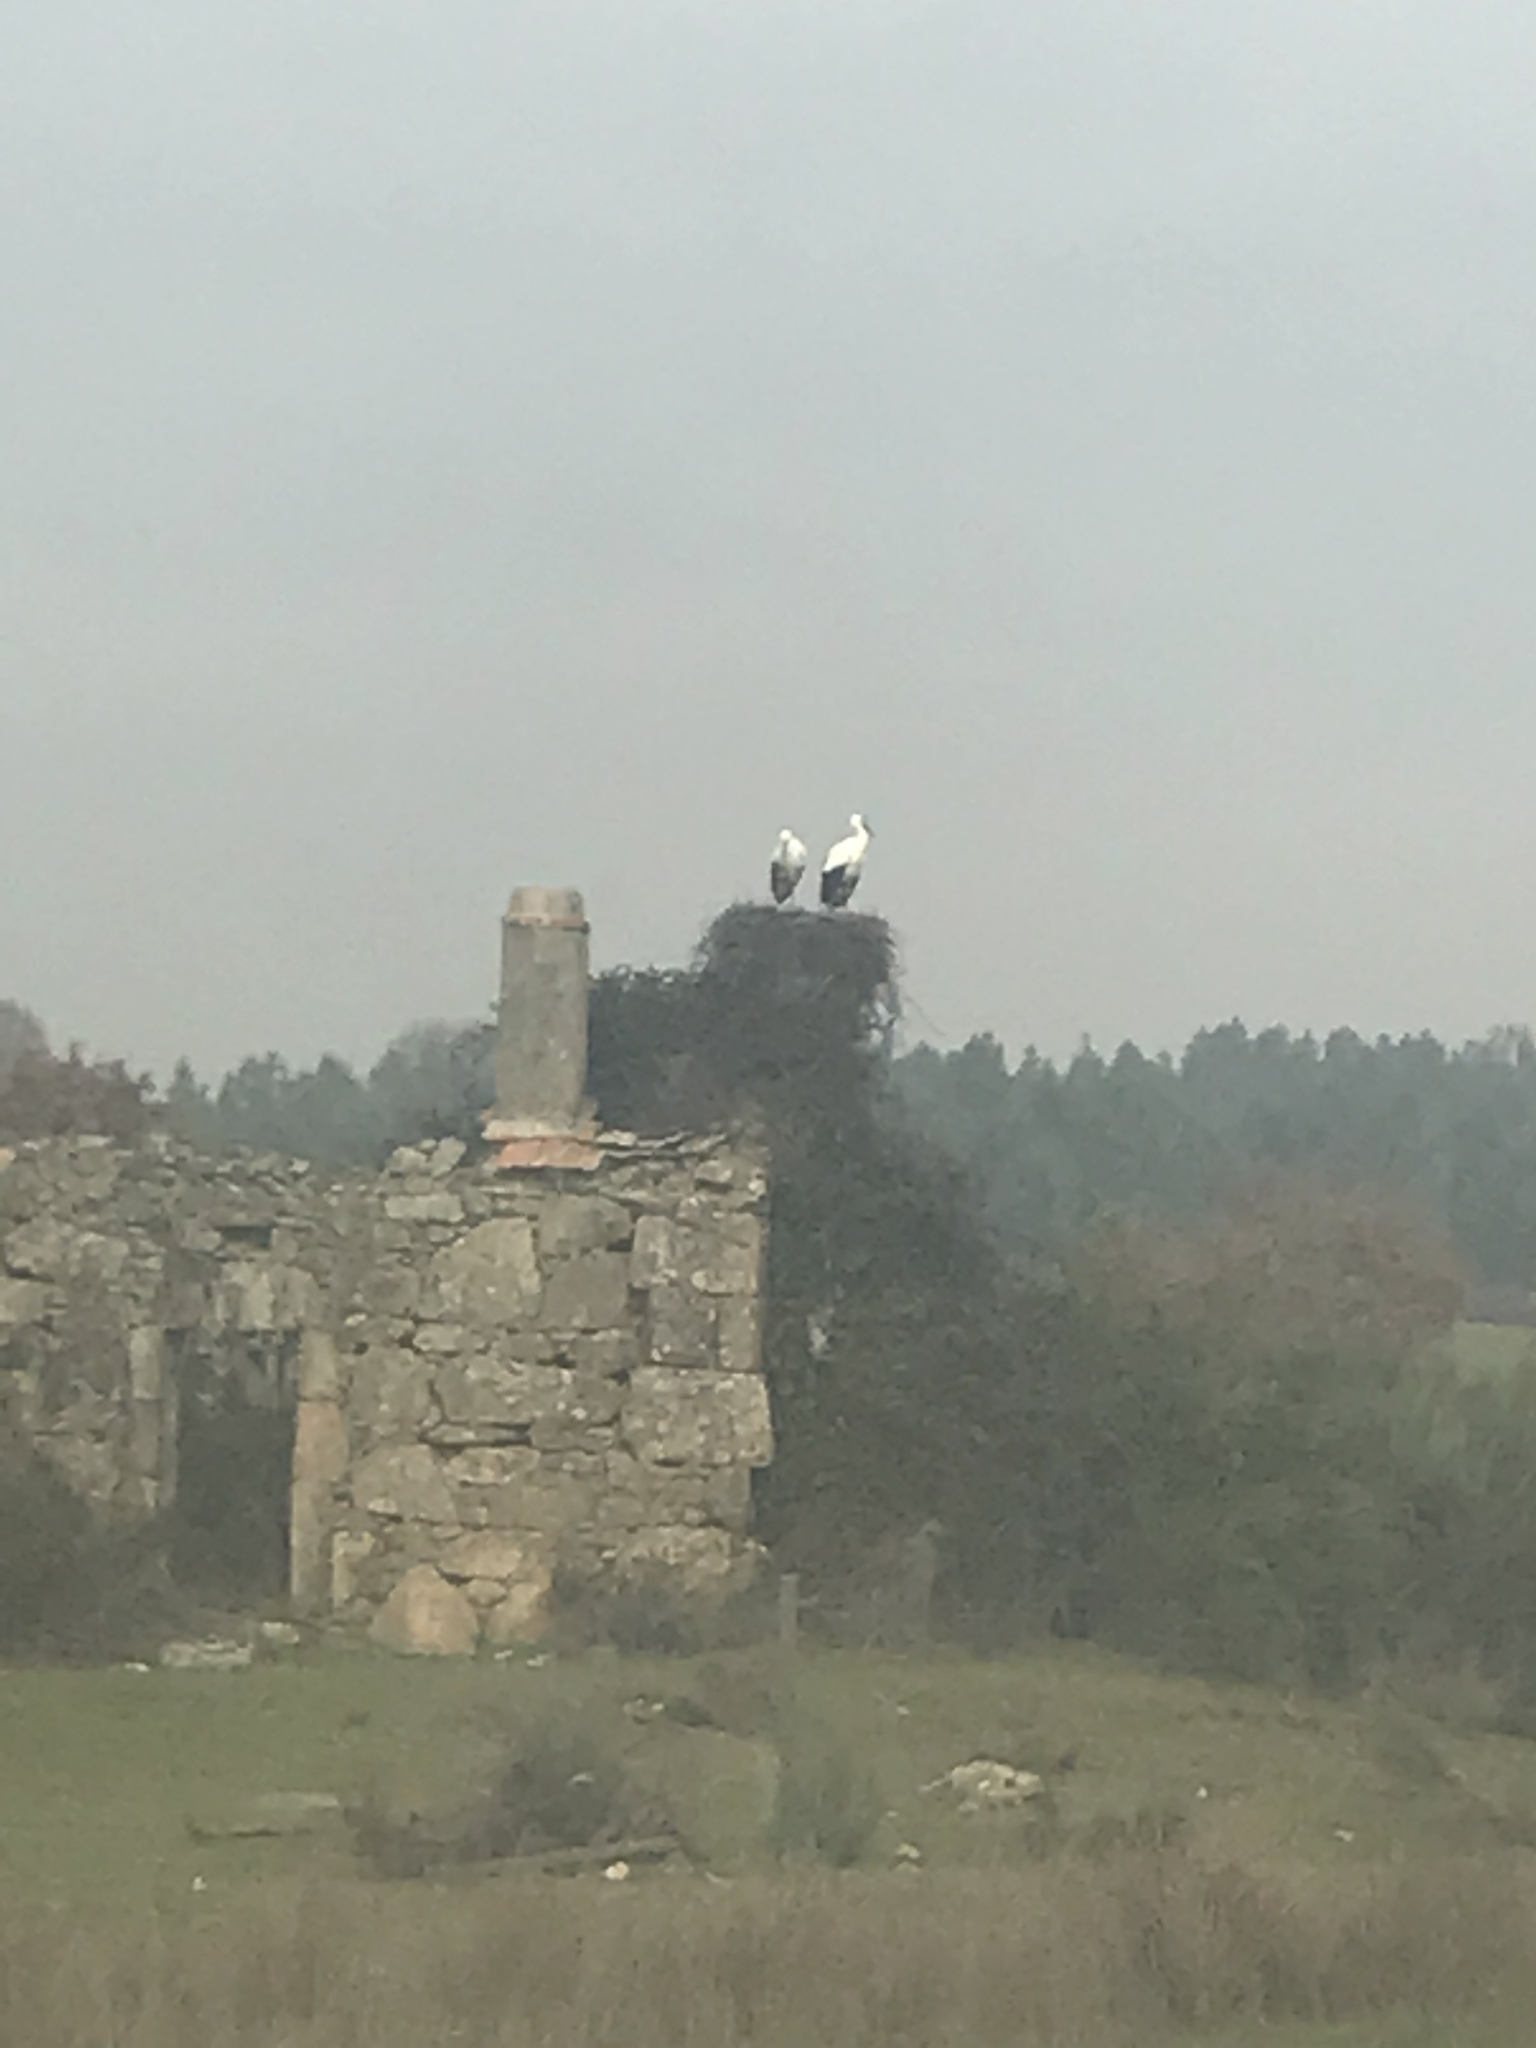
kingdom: Animalia
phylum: Chordata
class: Aves
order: Ciconiiformes
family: Ciconiidae
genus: Ciconia
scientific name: Ciconia ciconia
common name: White stork
